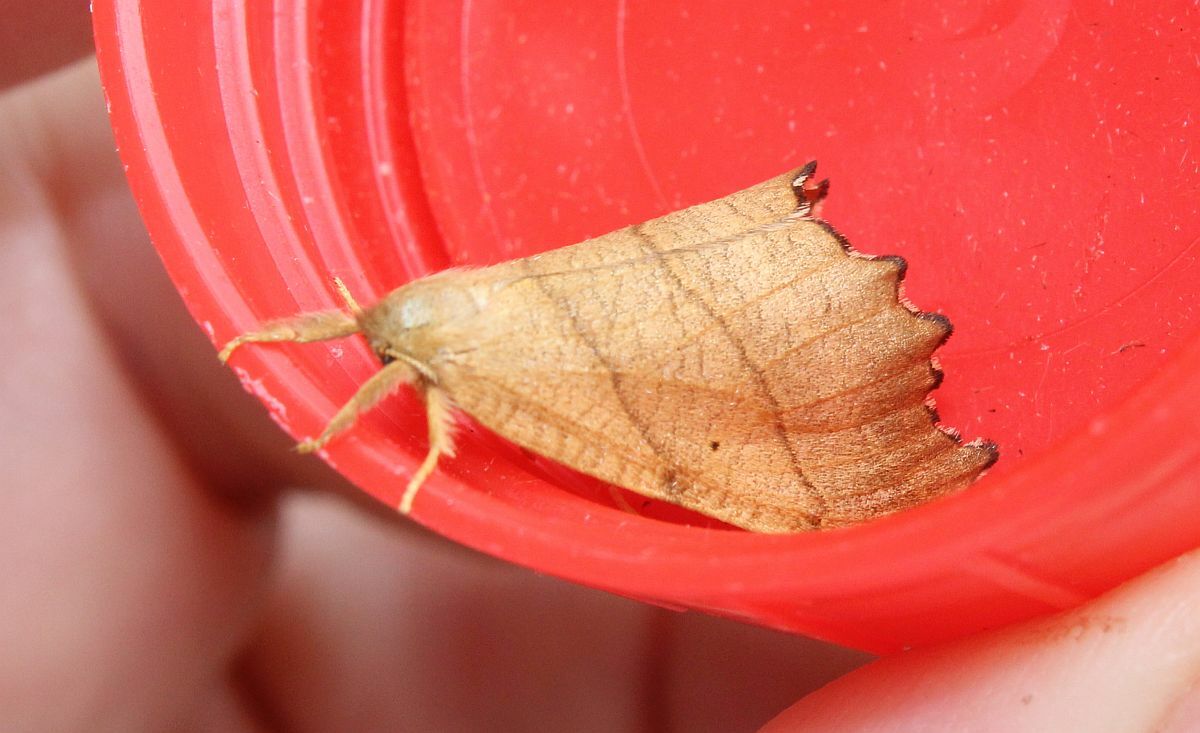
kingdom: Animalia
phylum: Arthropoda
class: Insecta
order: Lepidoptera
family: Drepanidae
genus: Falcaria
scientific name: Falcaria lacertinaria
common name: Scalloped hook-tip
